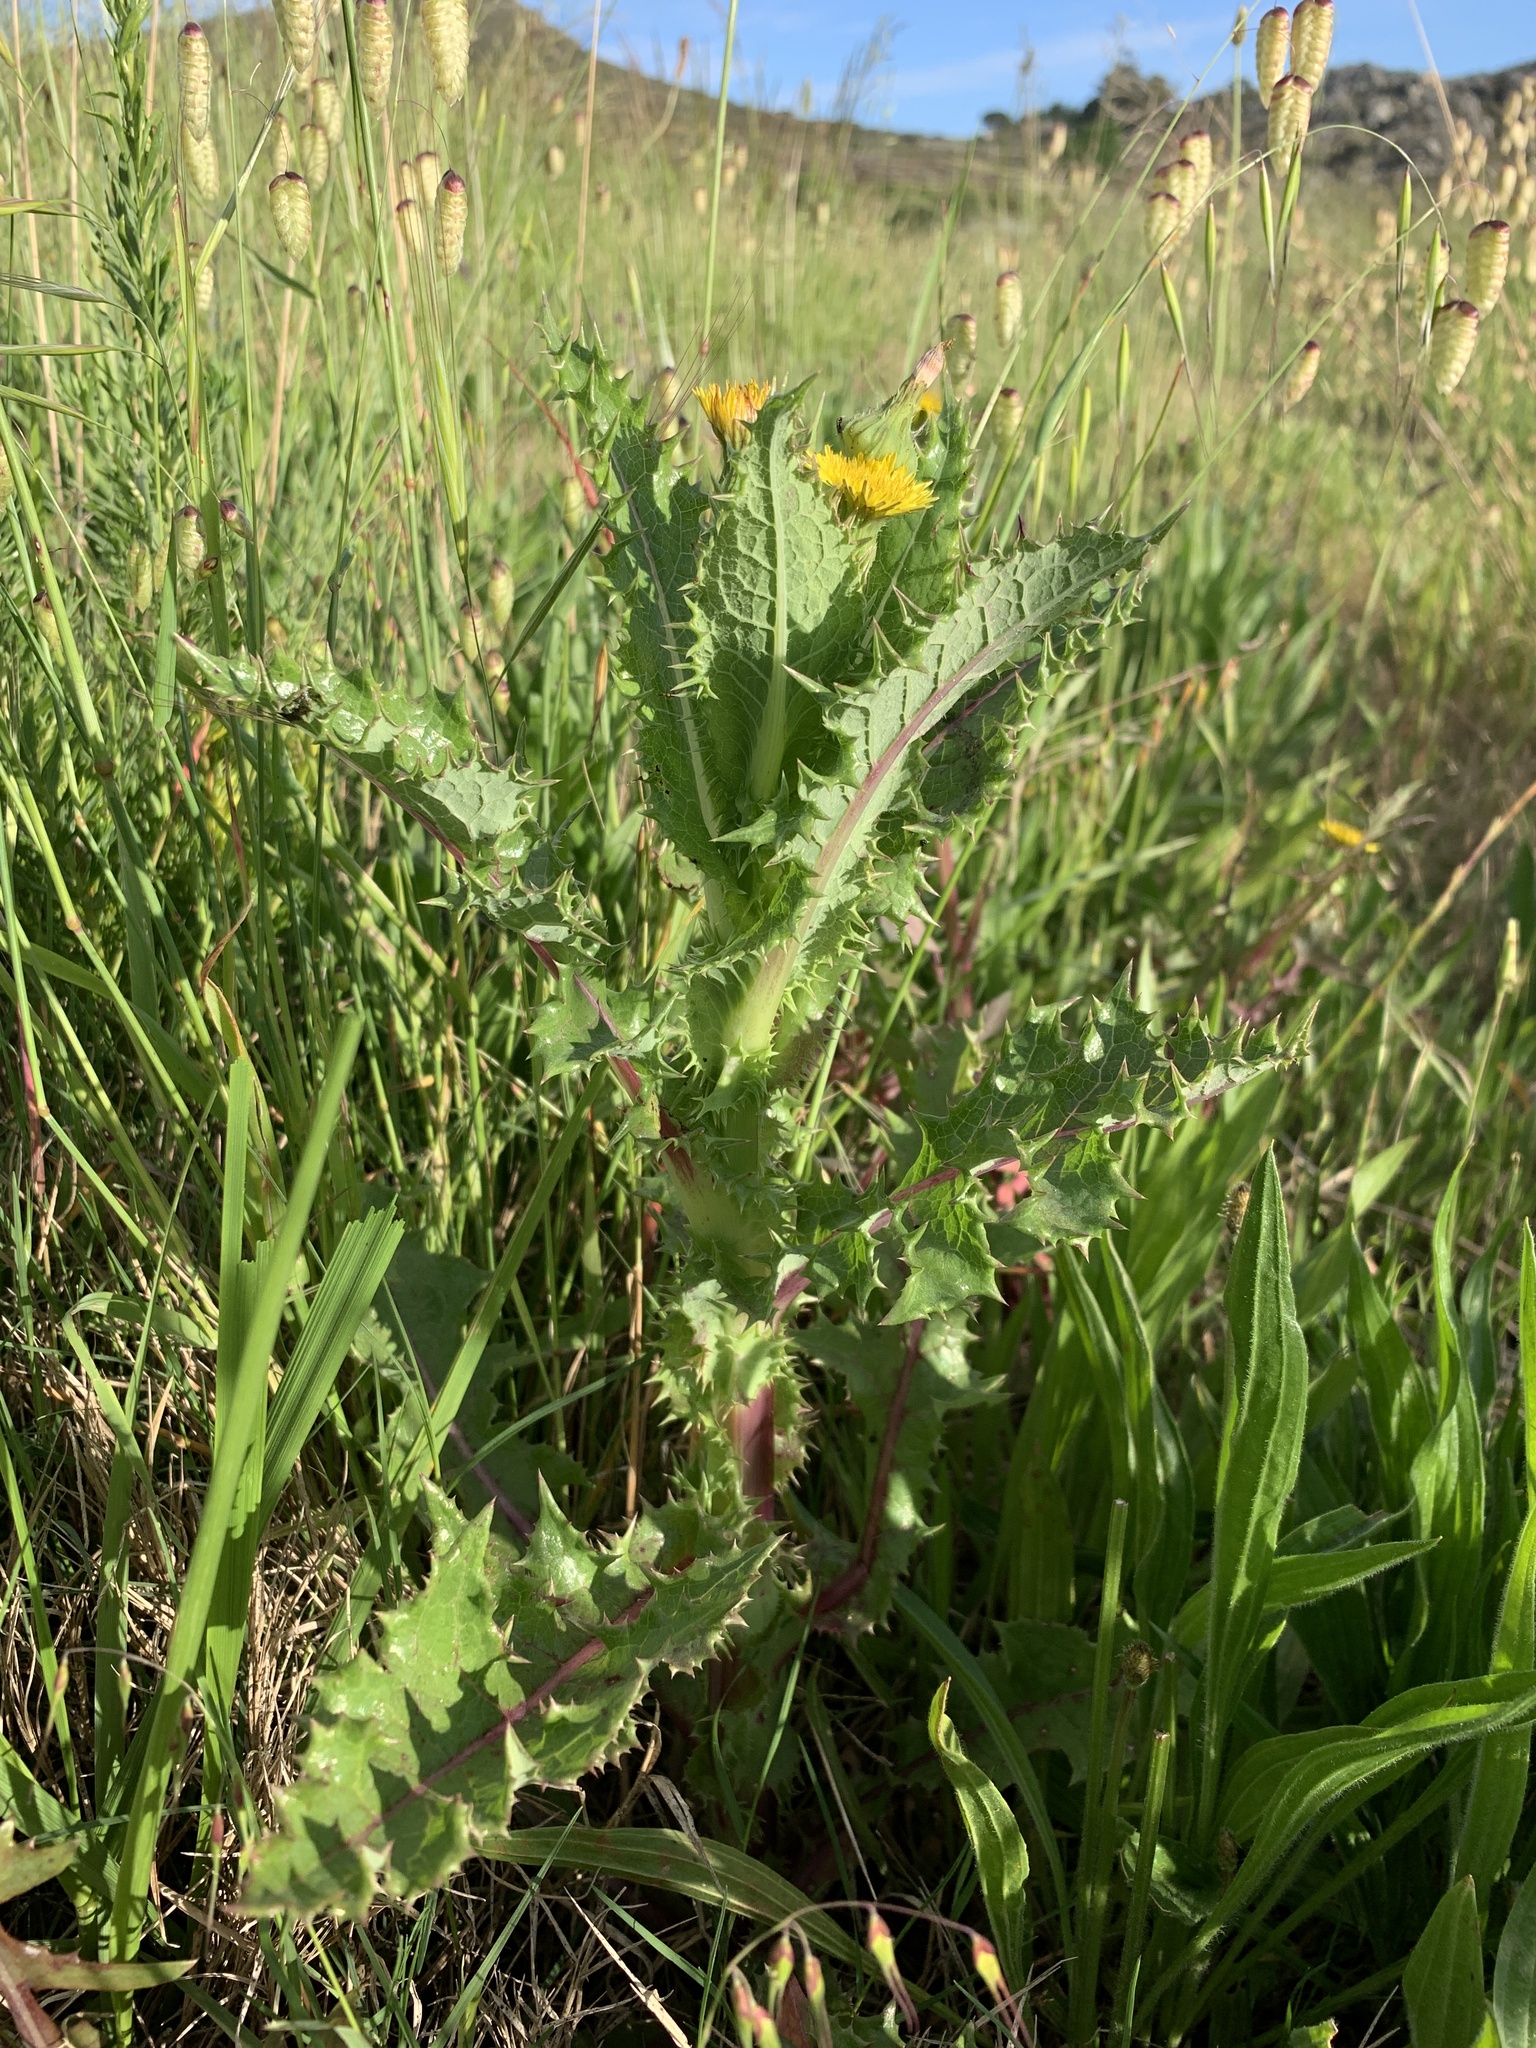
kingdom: Plantae
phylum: Tracheophyta
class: Magnoliopsida
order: Asterales
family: Asteraceae
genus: Sonchus
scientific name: Sonchus asper
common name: Prickly sow-thistle
